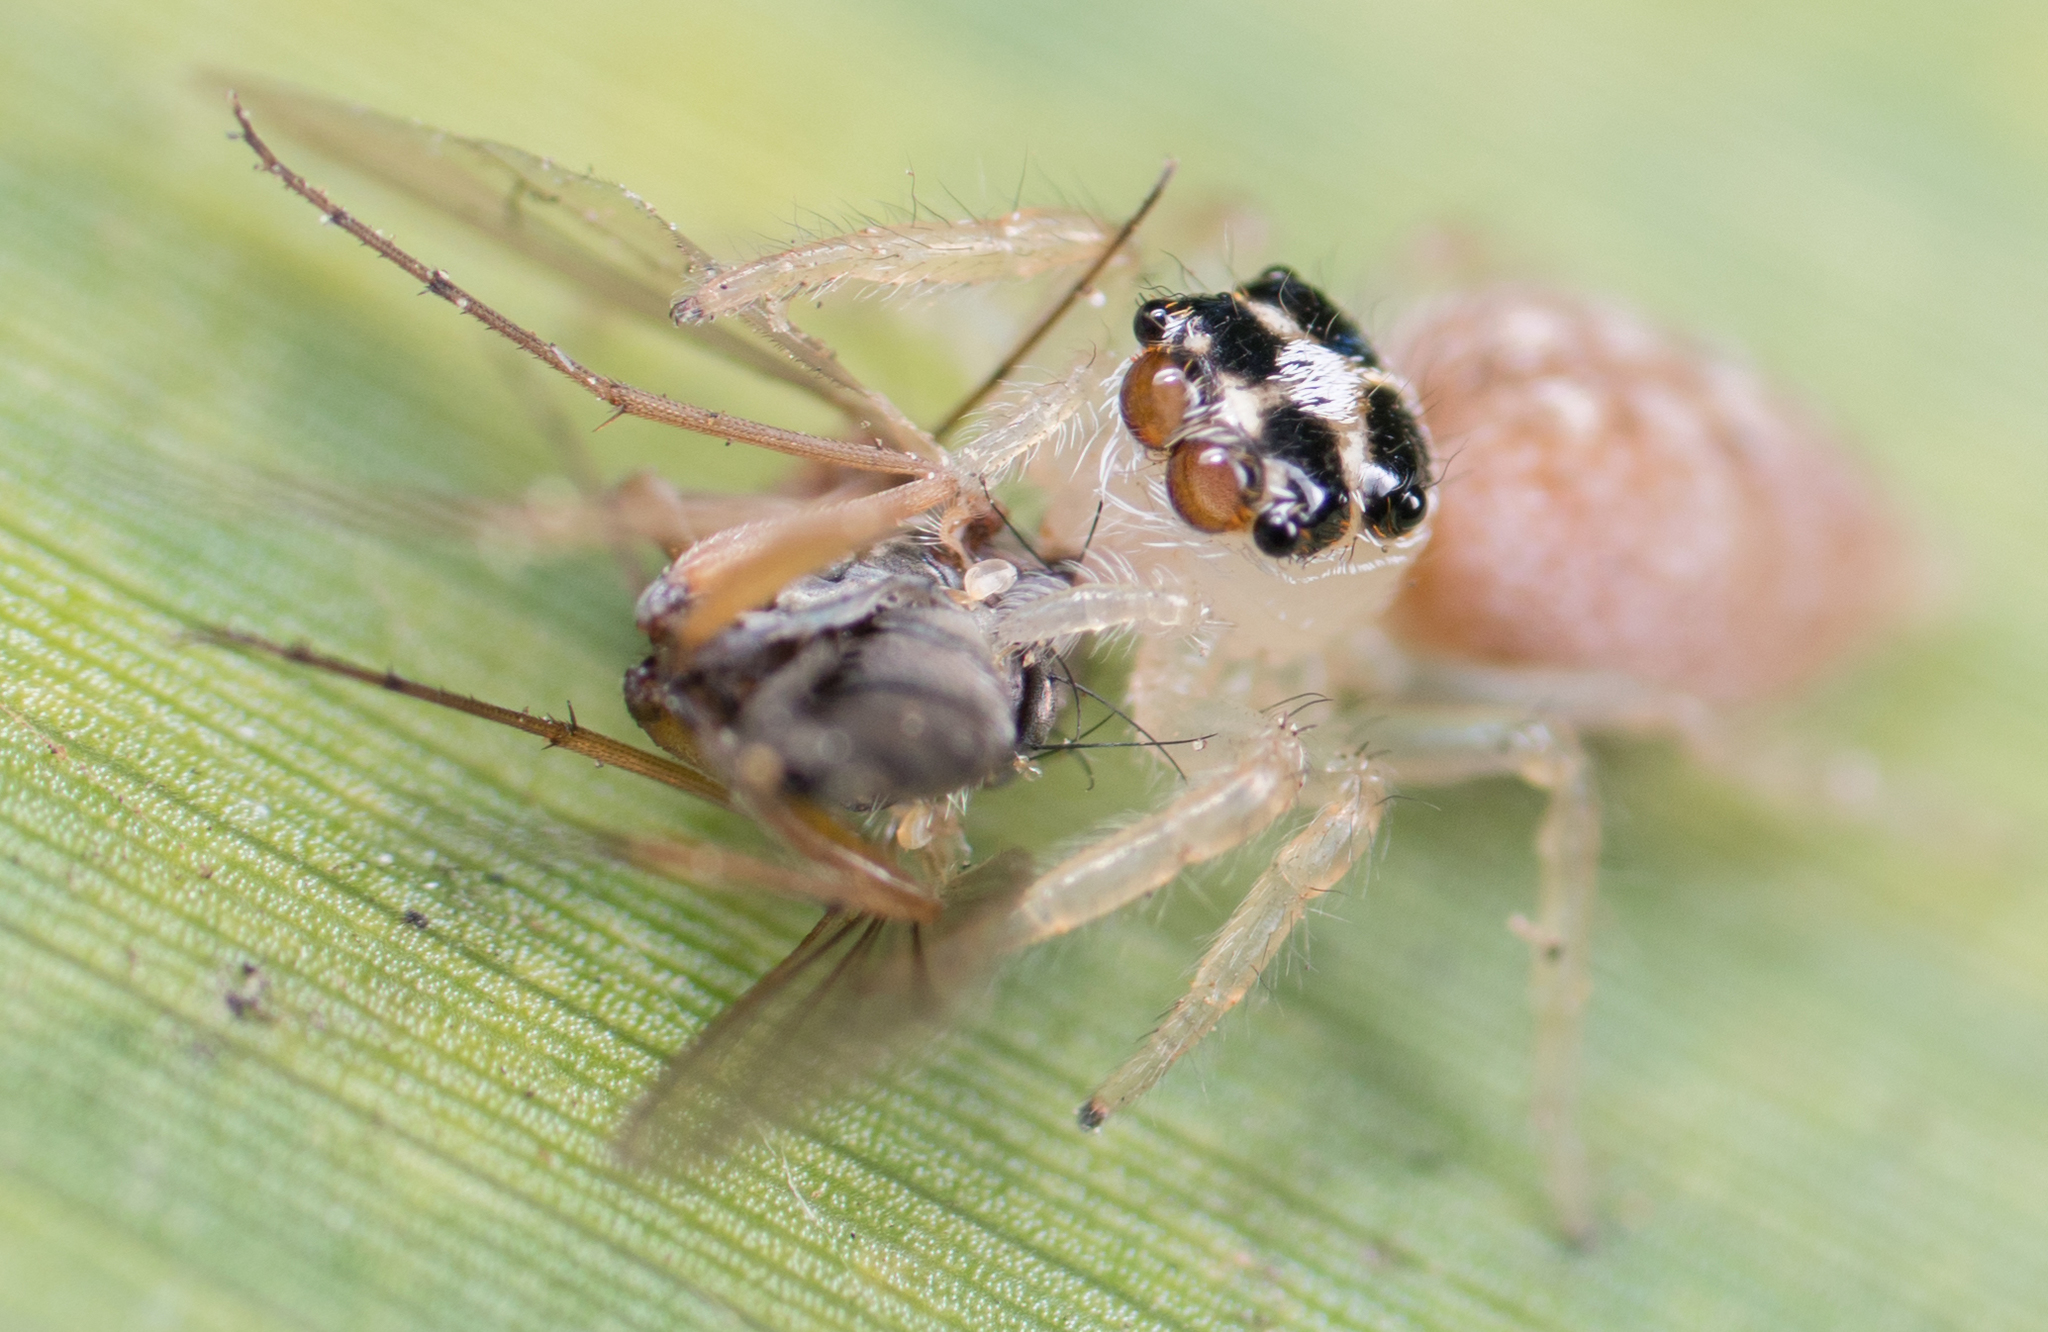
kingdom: Animalia
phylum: Arthropoda
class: Arachnida
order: Araneae
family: Salticidae
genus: Colonus
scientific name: Colonus hesperus
